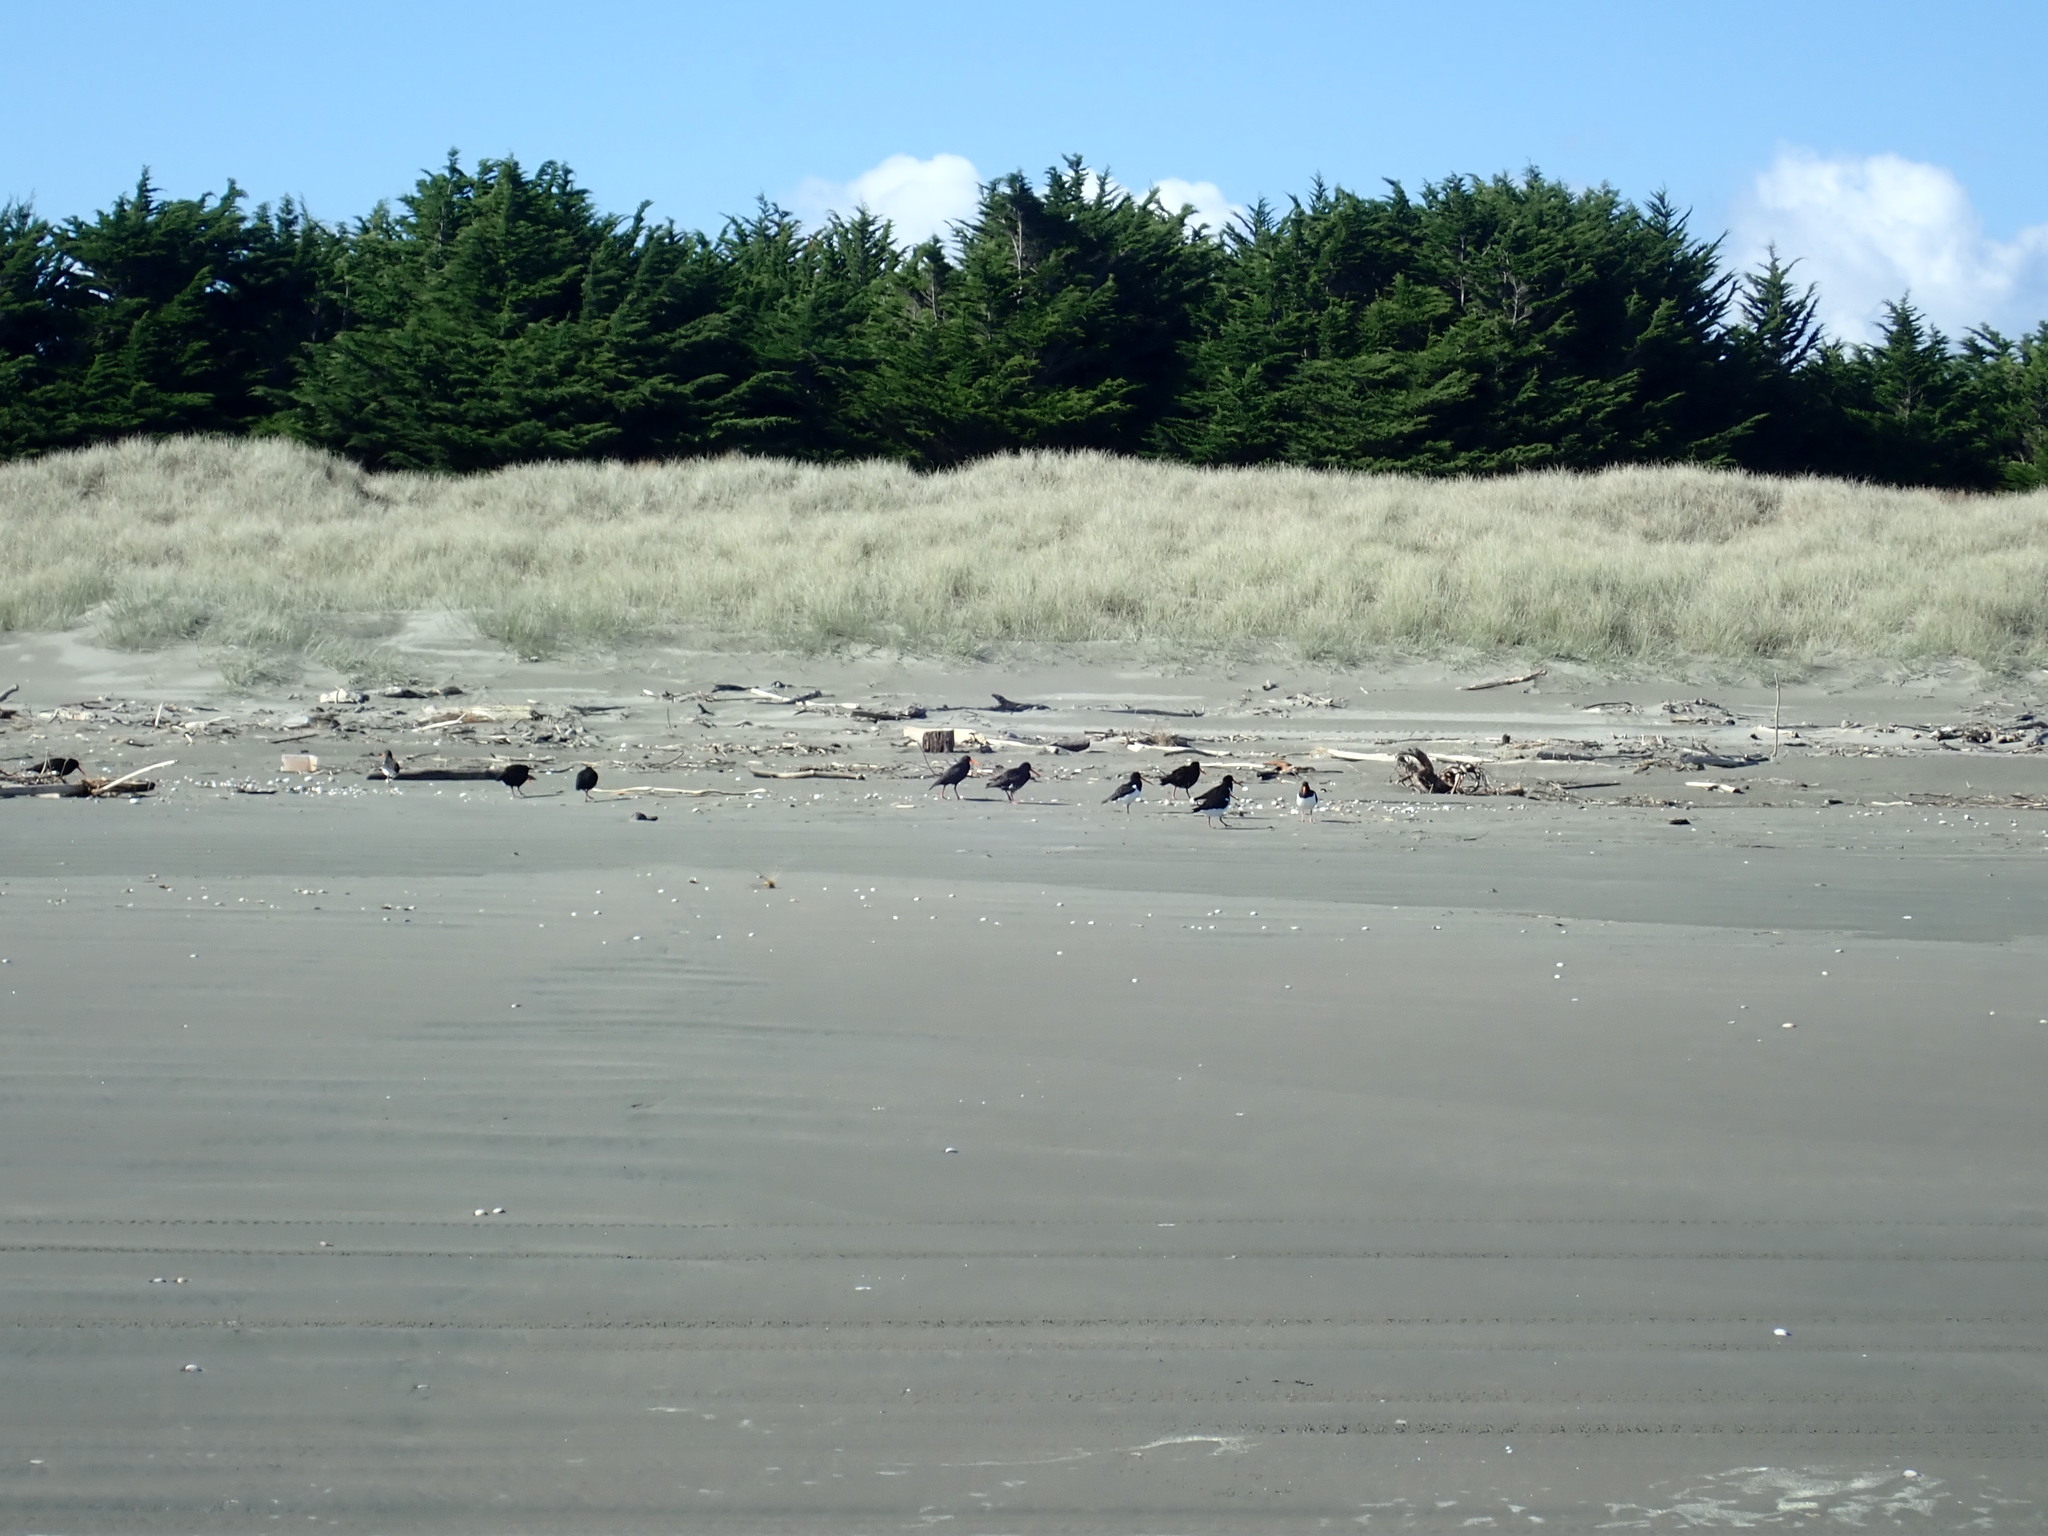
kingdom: Animalia
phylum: Chordata
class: Aves
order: Charadriiformes
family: Haematopodidae
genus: Haematopus
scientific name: Haematopus unicolor
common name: Variable oystercatcher
